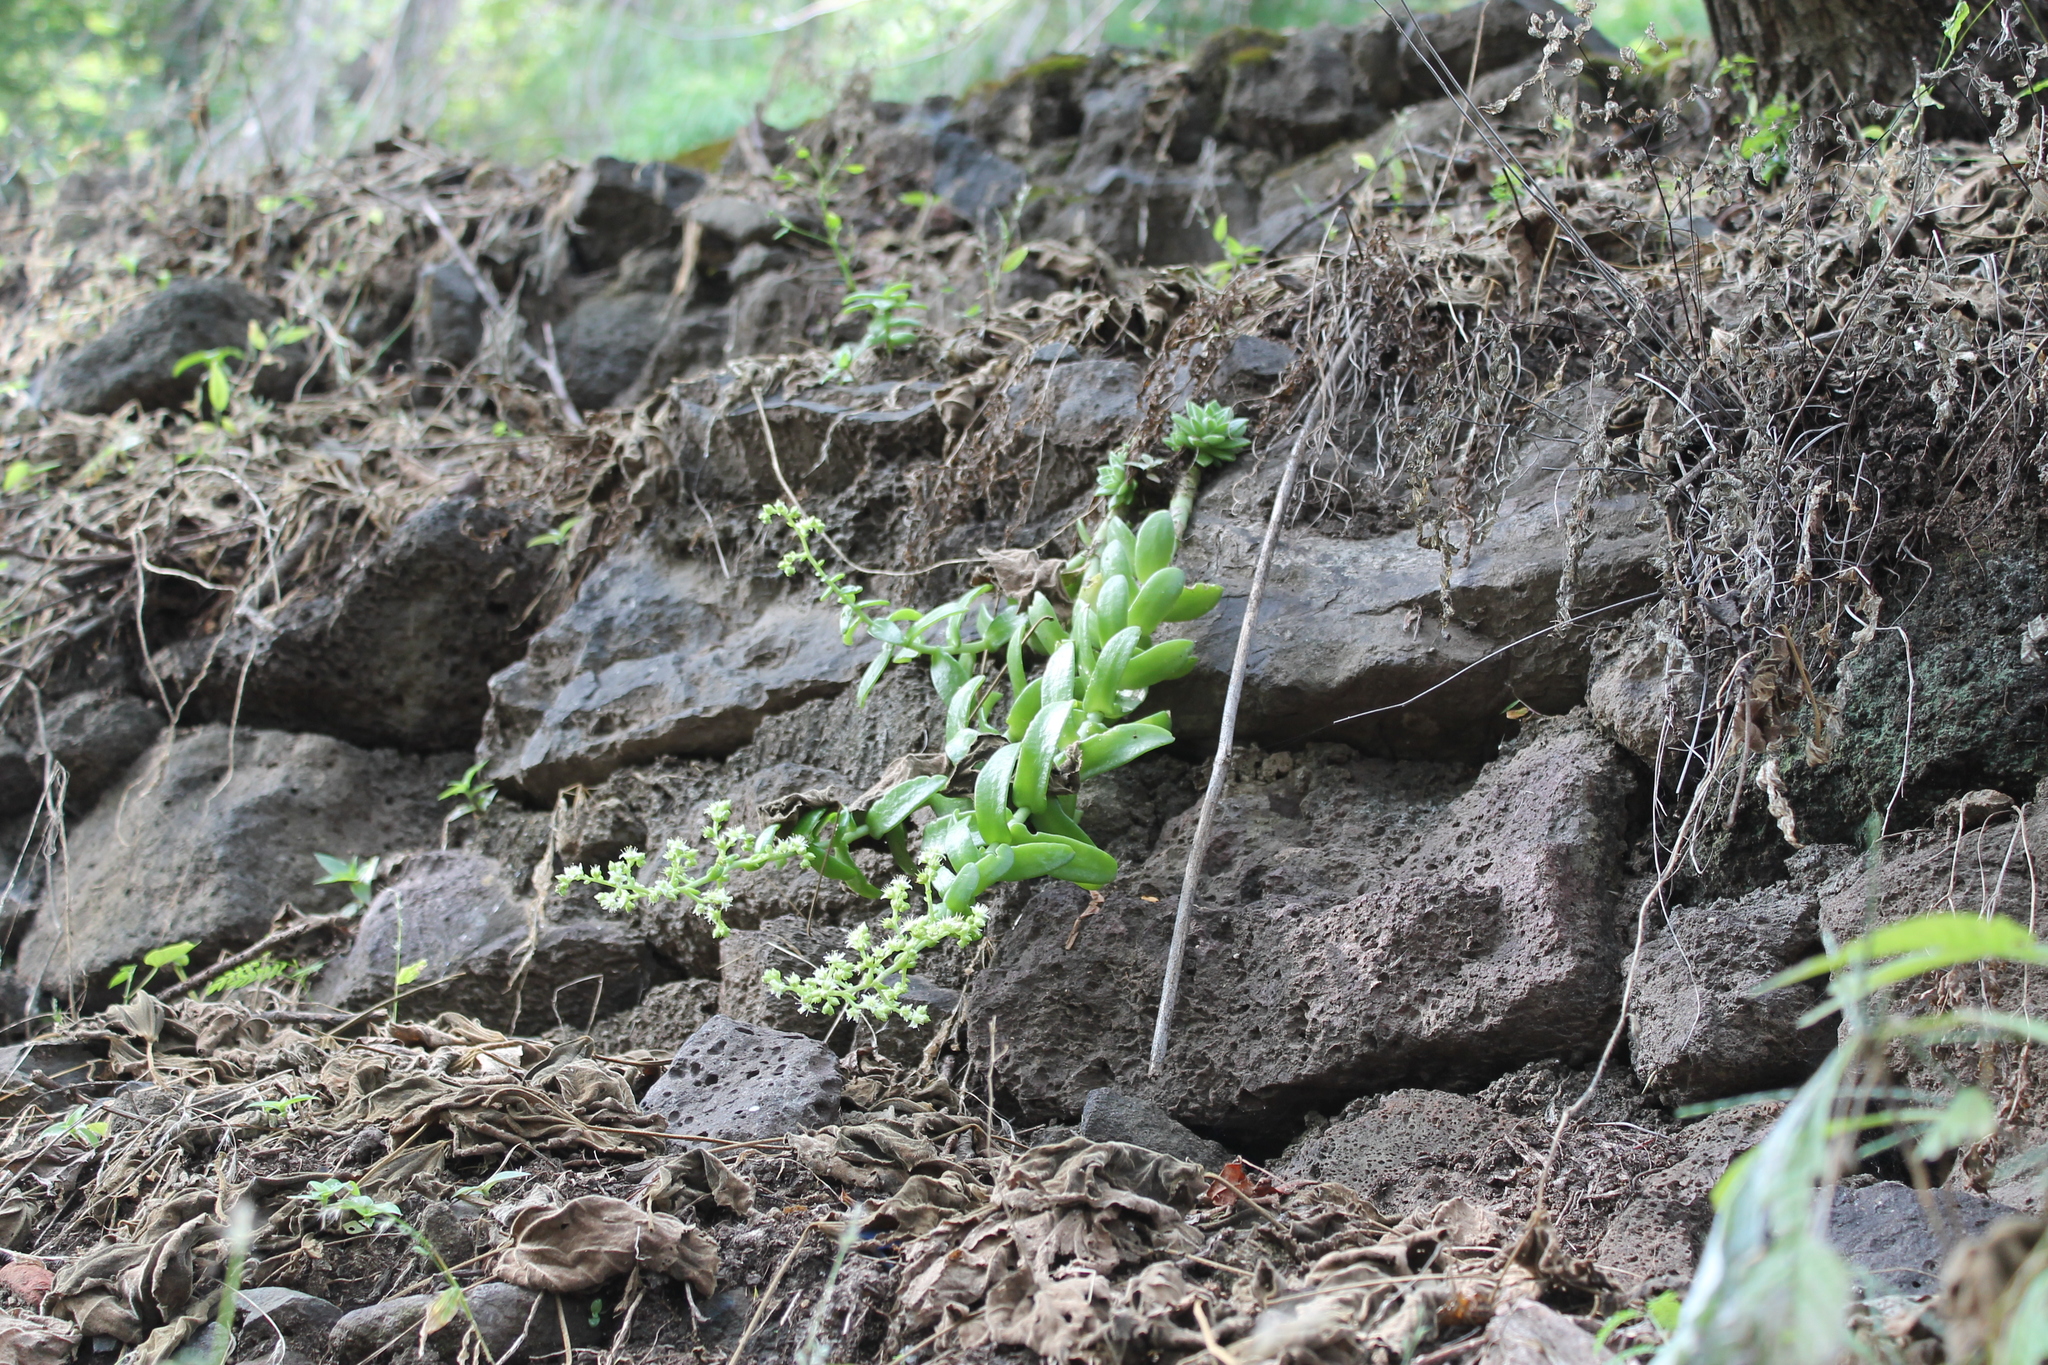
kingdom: Plantae
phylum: Tracheophyta
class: Magnoliopsida
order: Saxifragales
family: Crassulaceae
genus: Sedum
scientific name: Sedum ebracteatum
